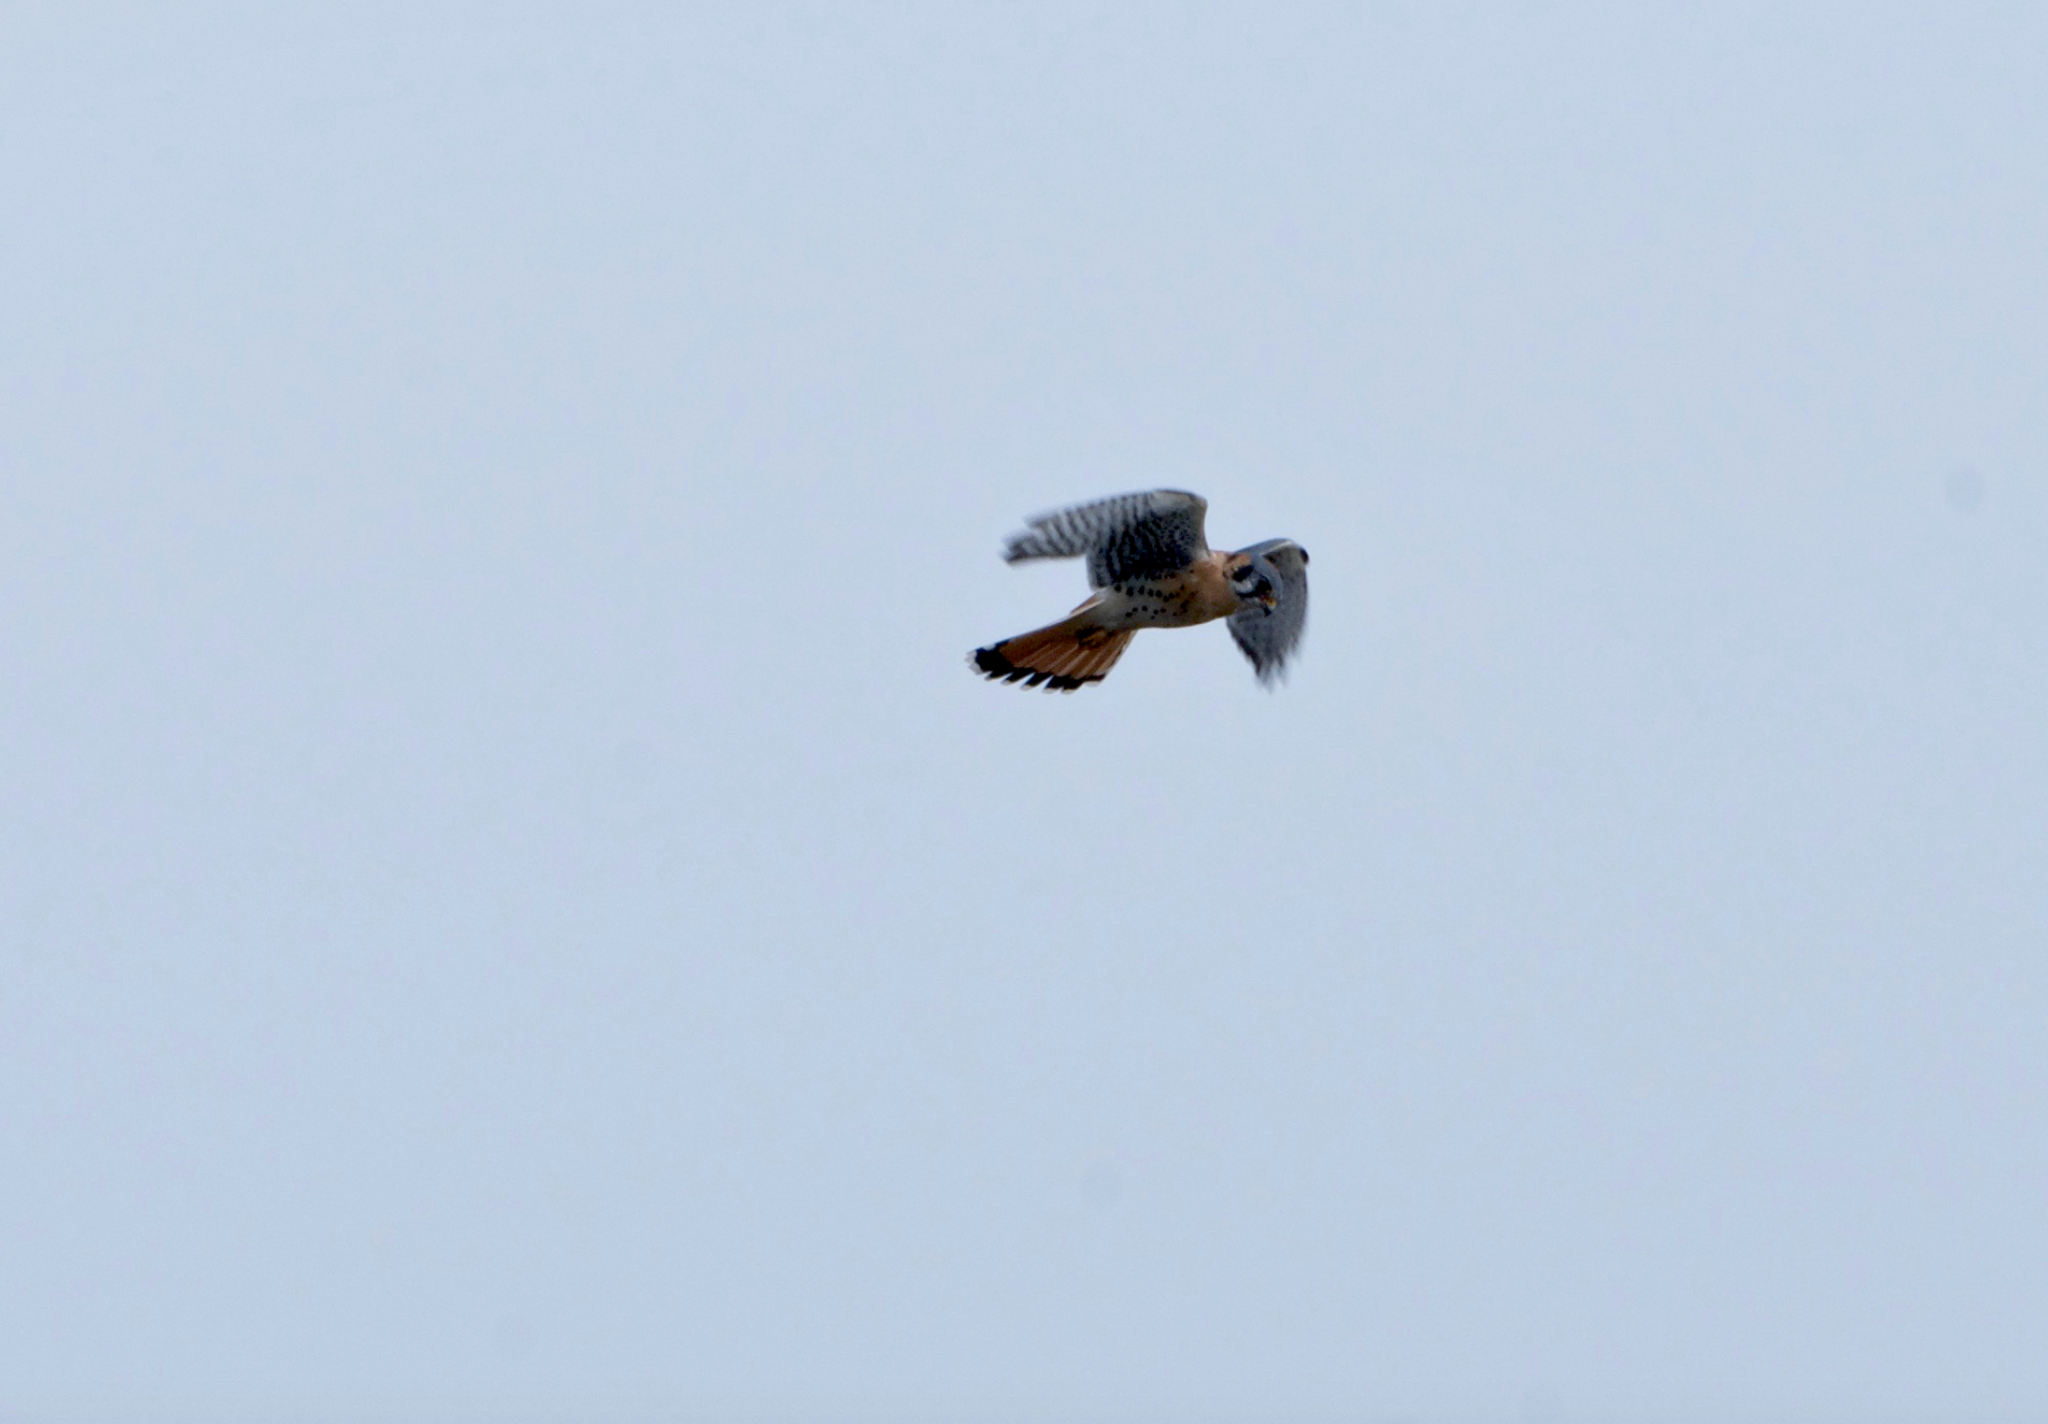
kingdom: Animalia
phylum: Chordata
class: Aves
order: Falconiformes
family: Falconidae
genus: Falco
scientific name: Falco sparverius
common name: American kestrel
